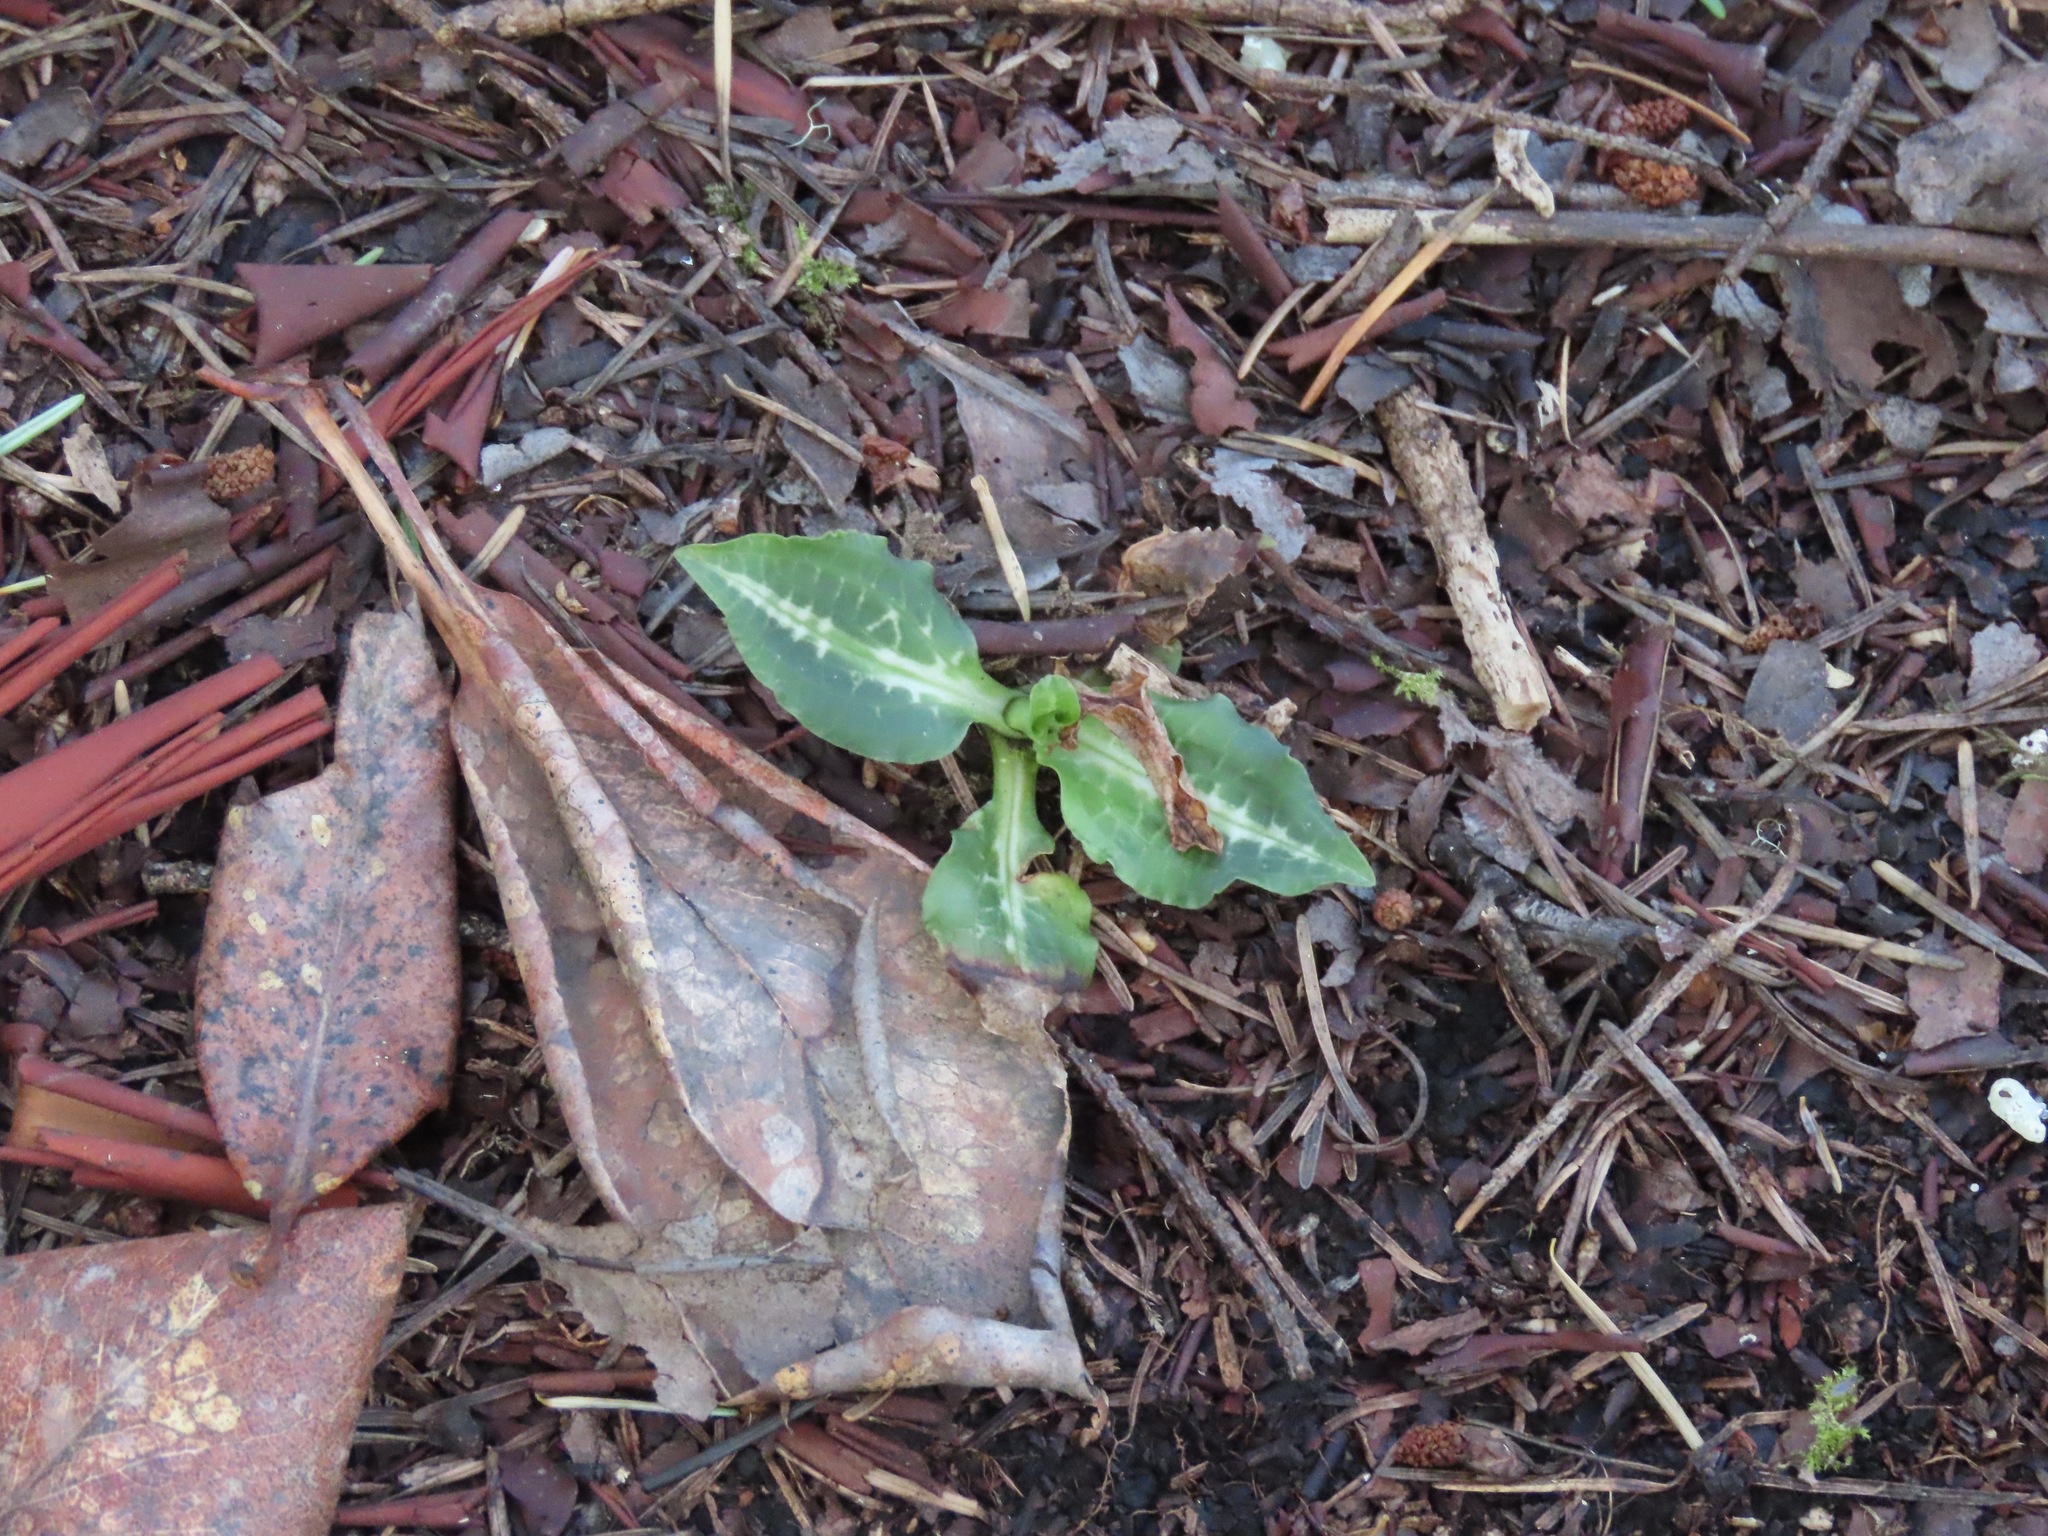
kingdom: Plantae
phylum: Tracheophyta
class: Liliopsida
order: Asparagales
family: Orchidaceae
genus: Goodyera
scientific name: Goodyera oblongifolia
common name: Giant rattlesnake-plantain
